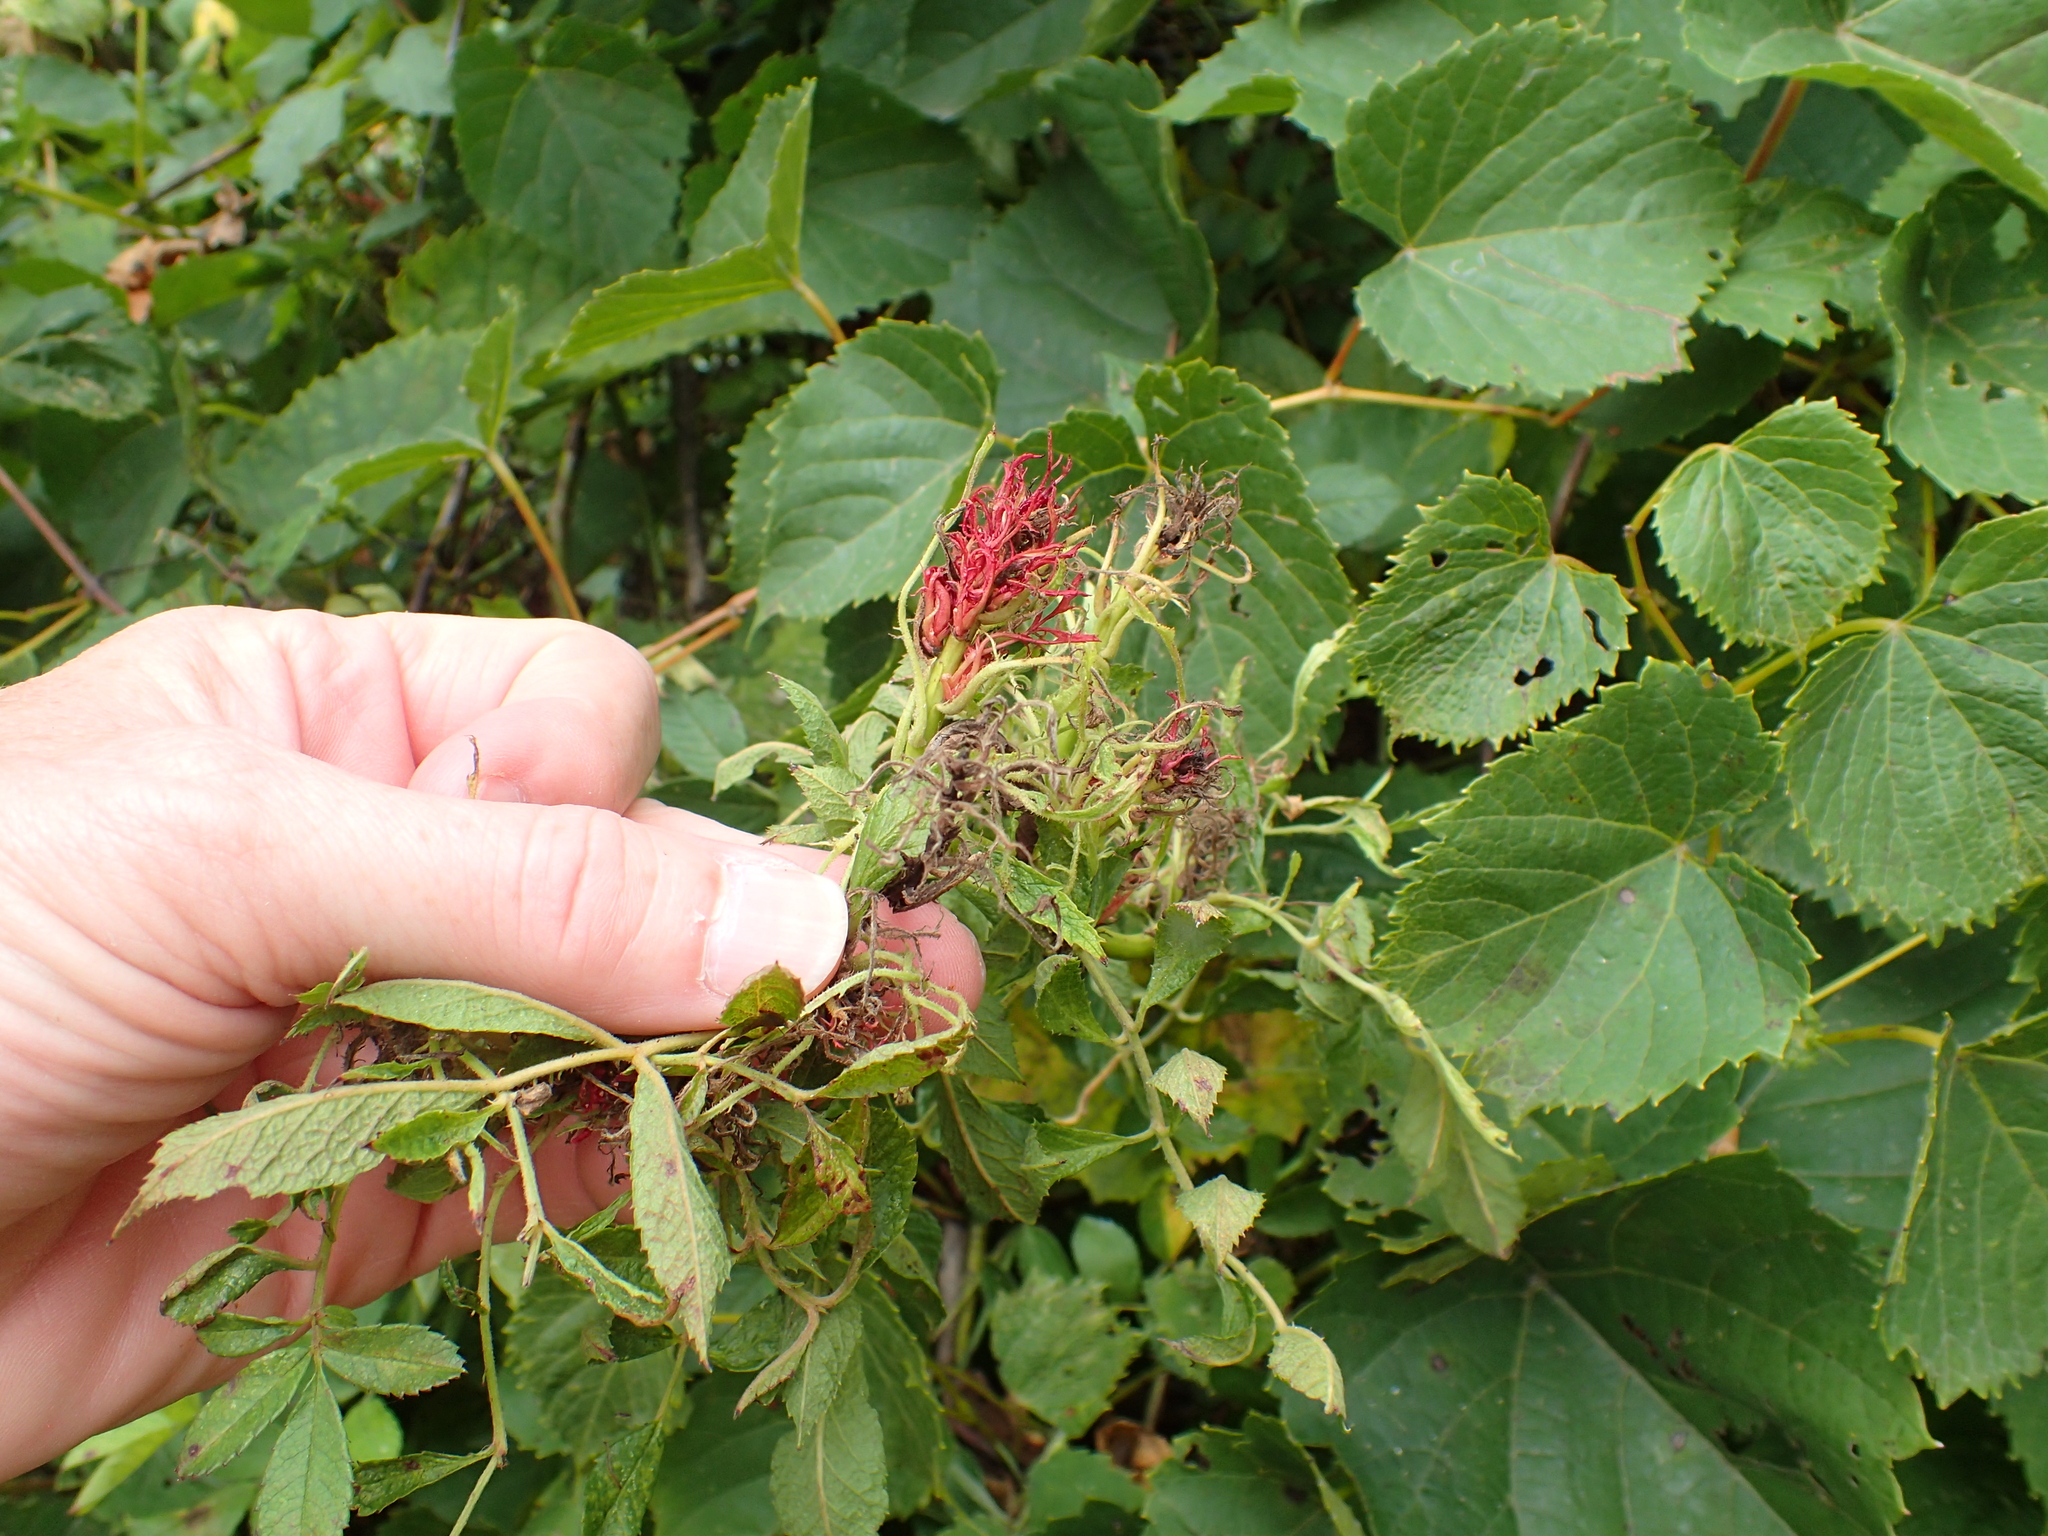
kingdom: Viruses
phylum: Negarnaviricota
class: Ellioviricetes
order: Bunyavirales
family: Fimoviridae
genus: Emaravirus
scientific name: Emaravirus rosae
